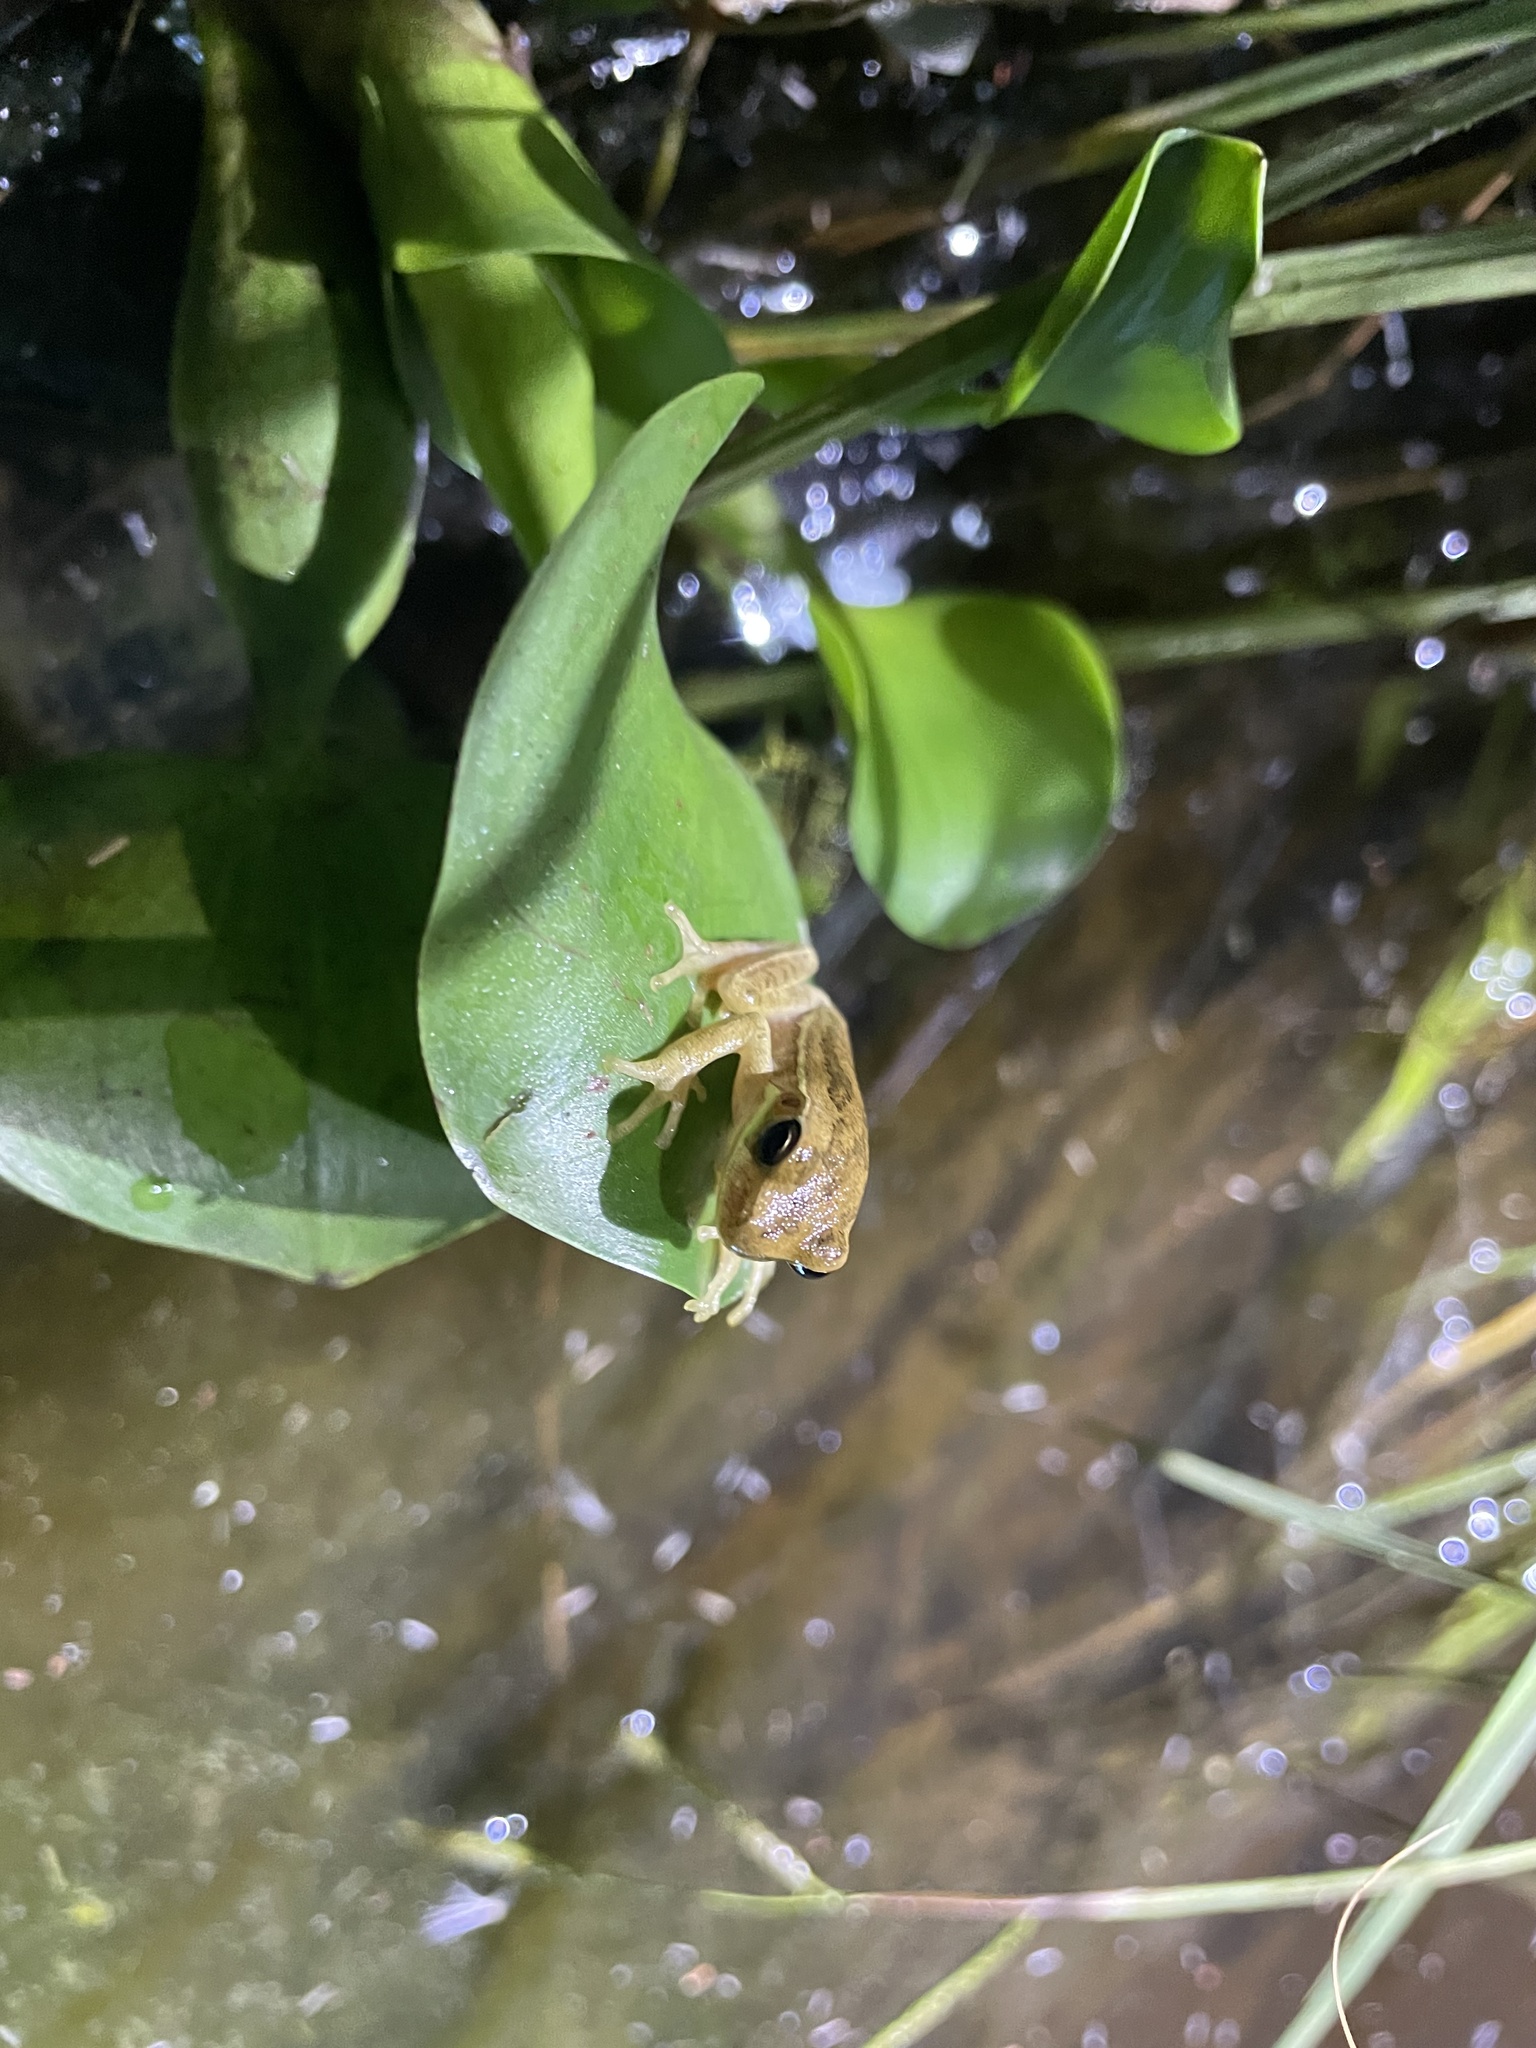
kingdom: Animalia
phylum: Chordata
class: Amphibia
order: Anura
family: Hylidae
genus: Boana
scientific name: Boana pulchella
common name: Montevideo treefrog
